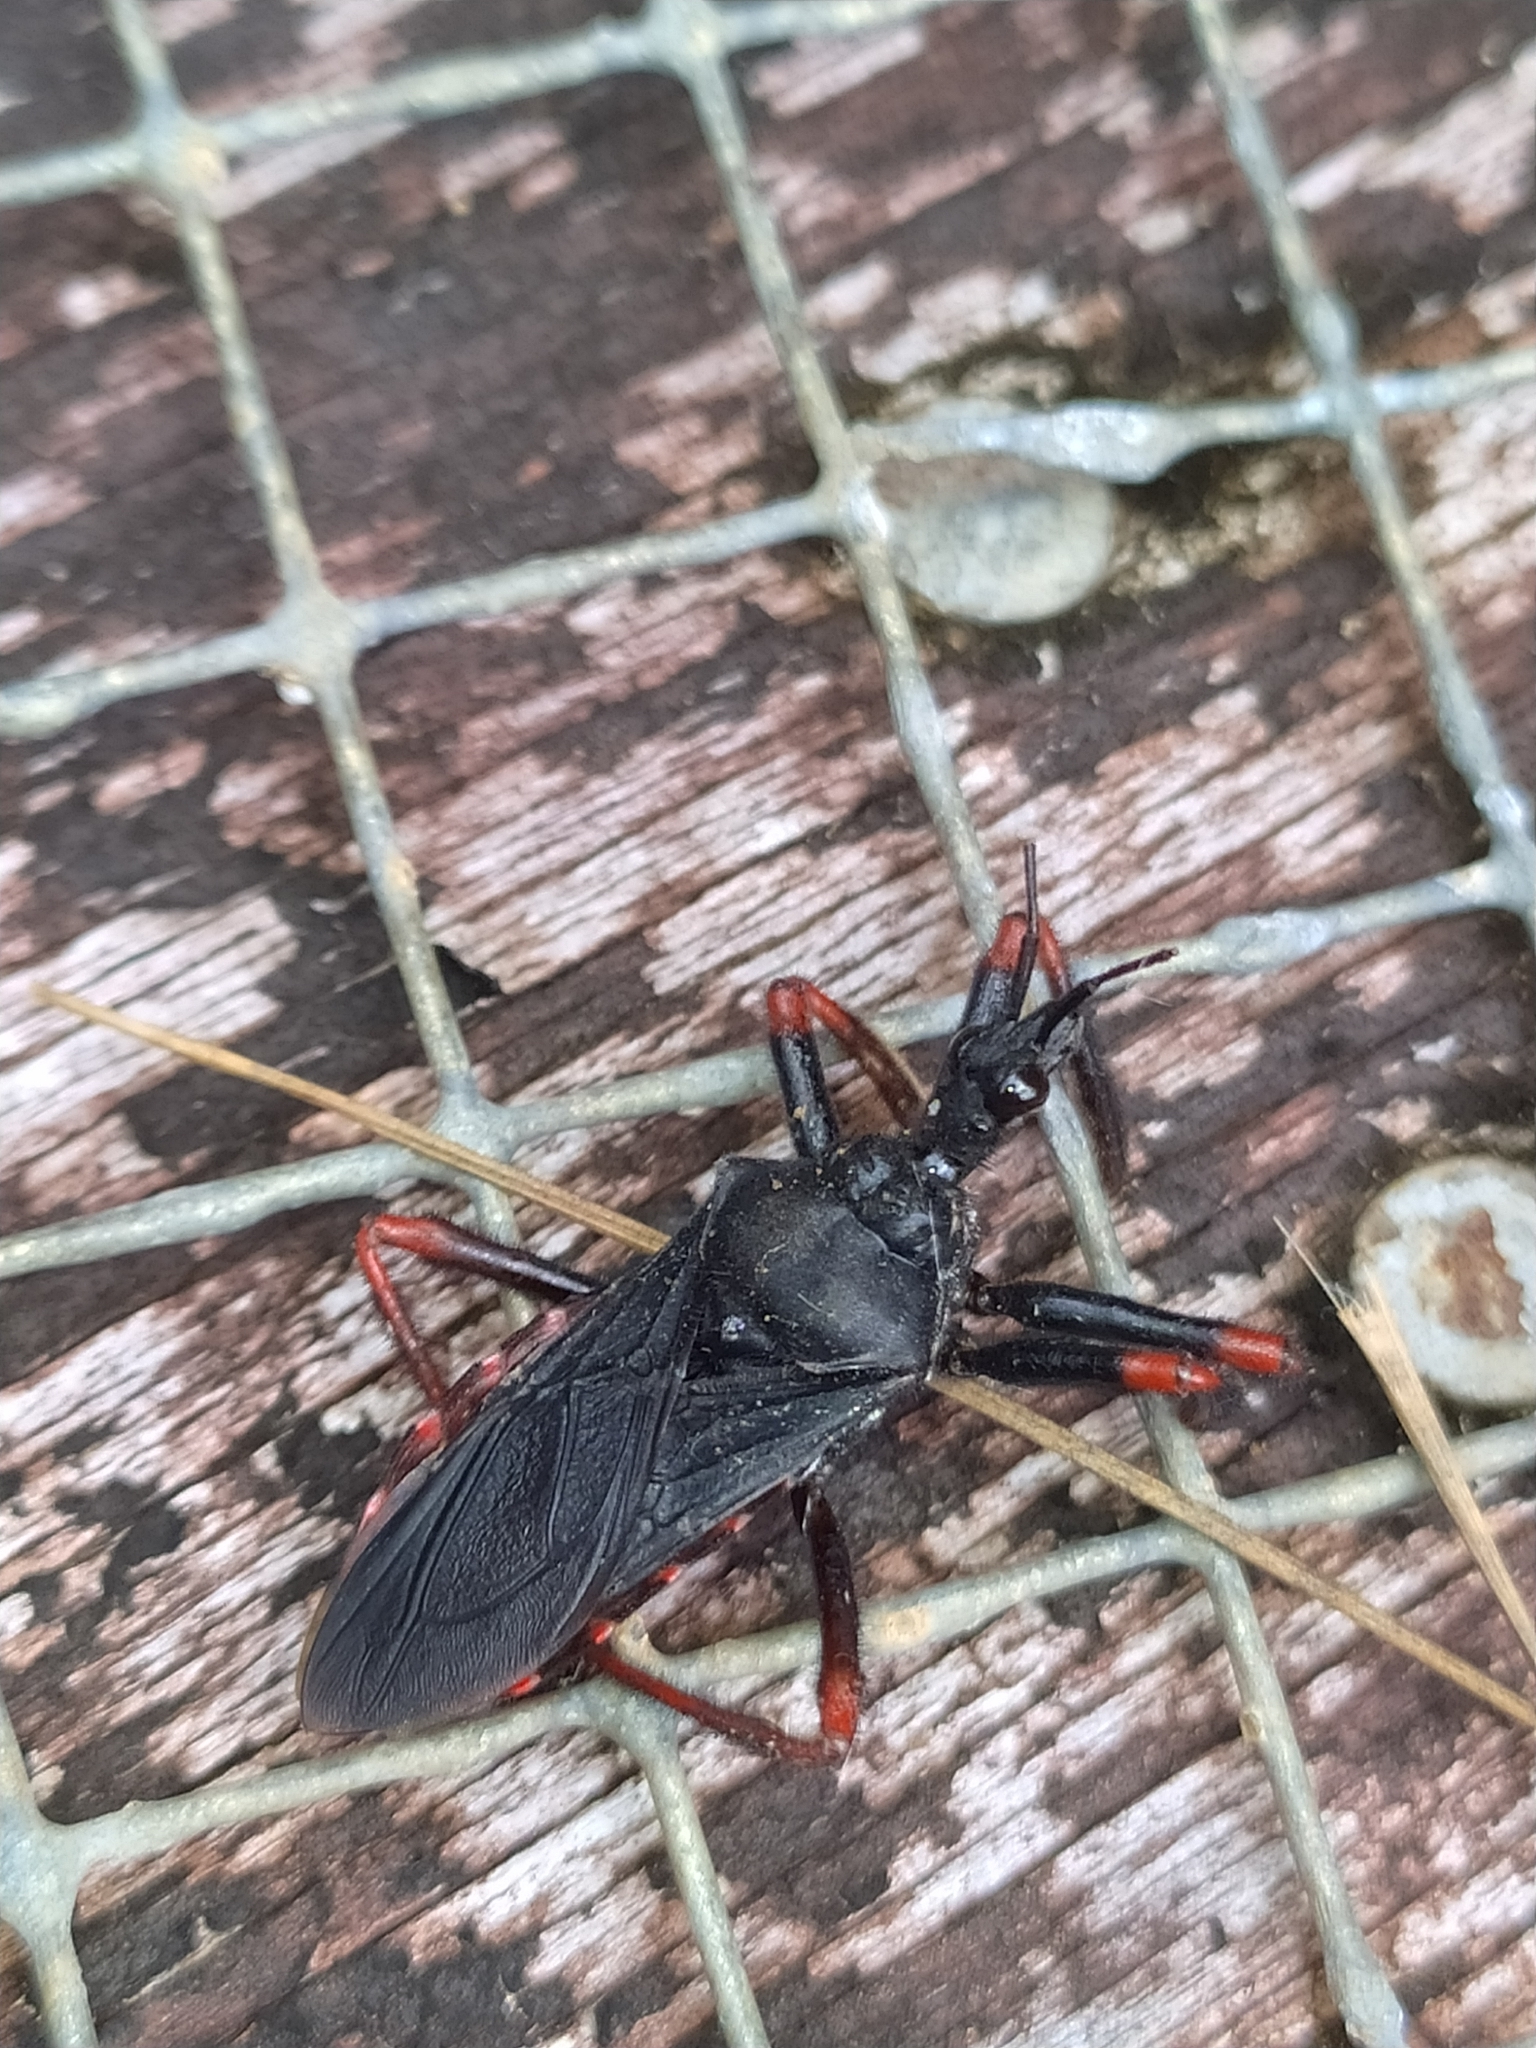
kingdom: Animalia
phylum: Arthropoda
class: Insecta
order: Hemiptera
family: Reduviidae
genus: Apiomerus
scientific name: Apiomerus geniculatus
